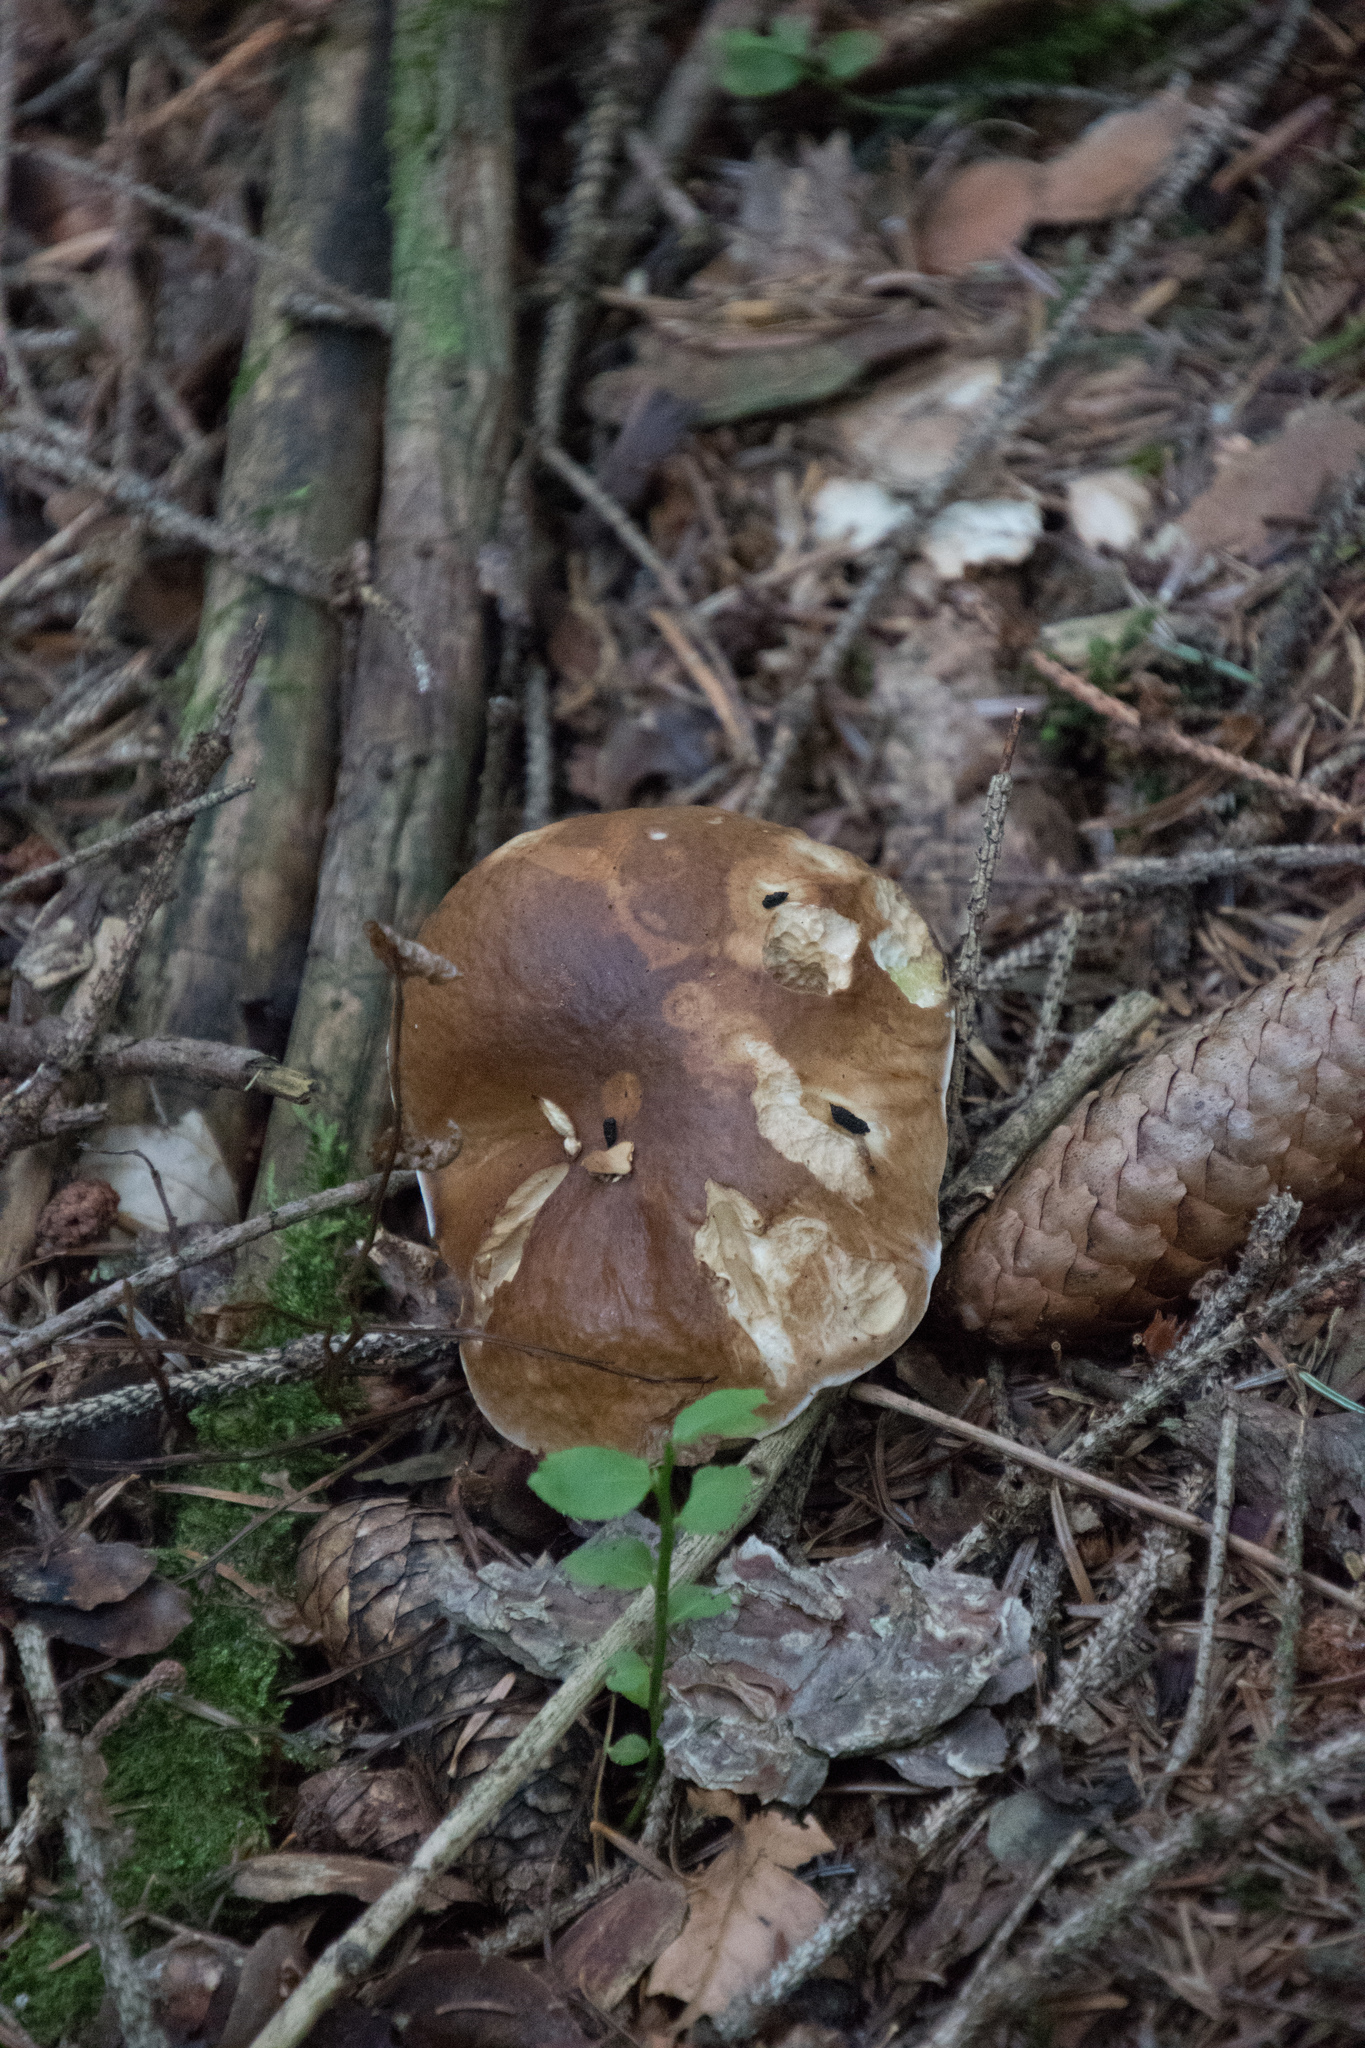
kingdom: Fungi
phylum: Basidiomycota
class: Agaricomycetes
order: Boletales
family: Boletaceae
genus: Boletus
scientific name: Boletus edulis
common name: Cep
